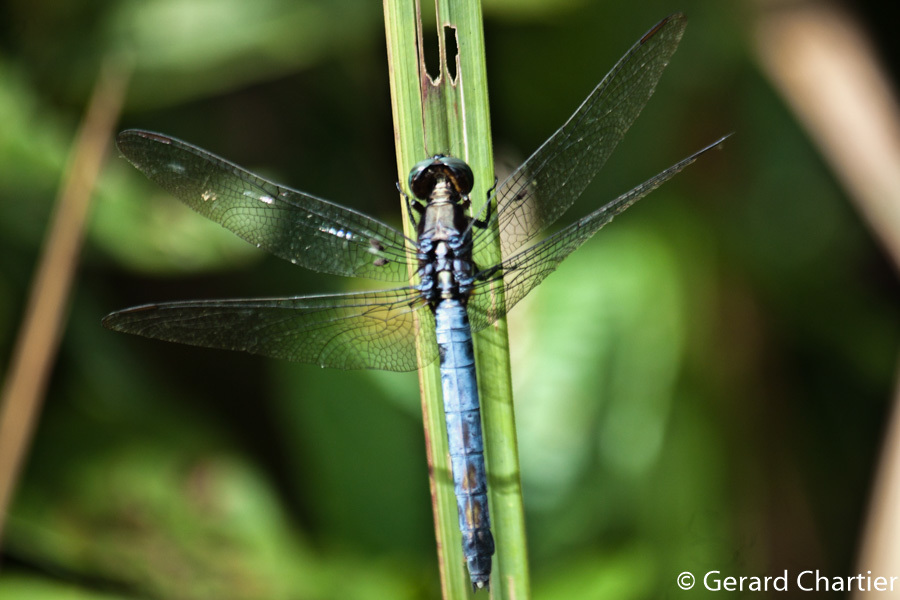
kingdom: Animalia
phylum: Arthropoda
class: Insecta
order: Odonata
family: Libellulidae
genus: Orthetrum
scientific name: Orthetrum glaucum
